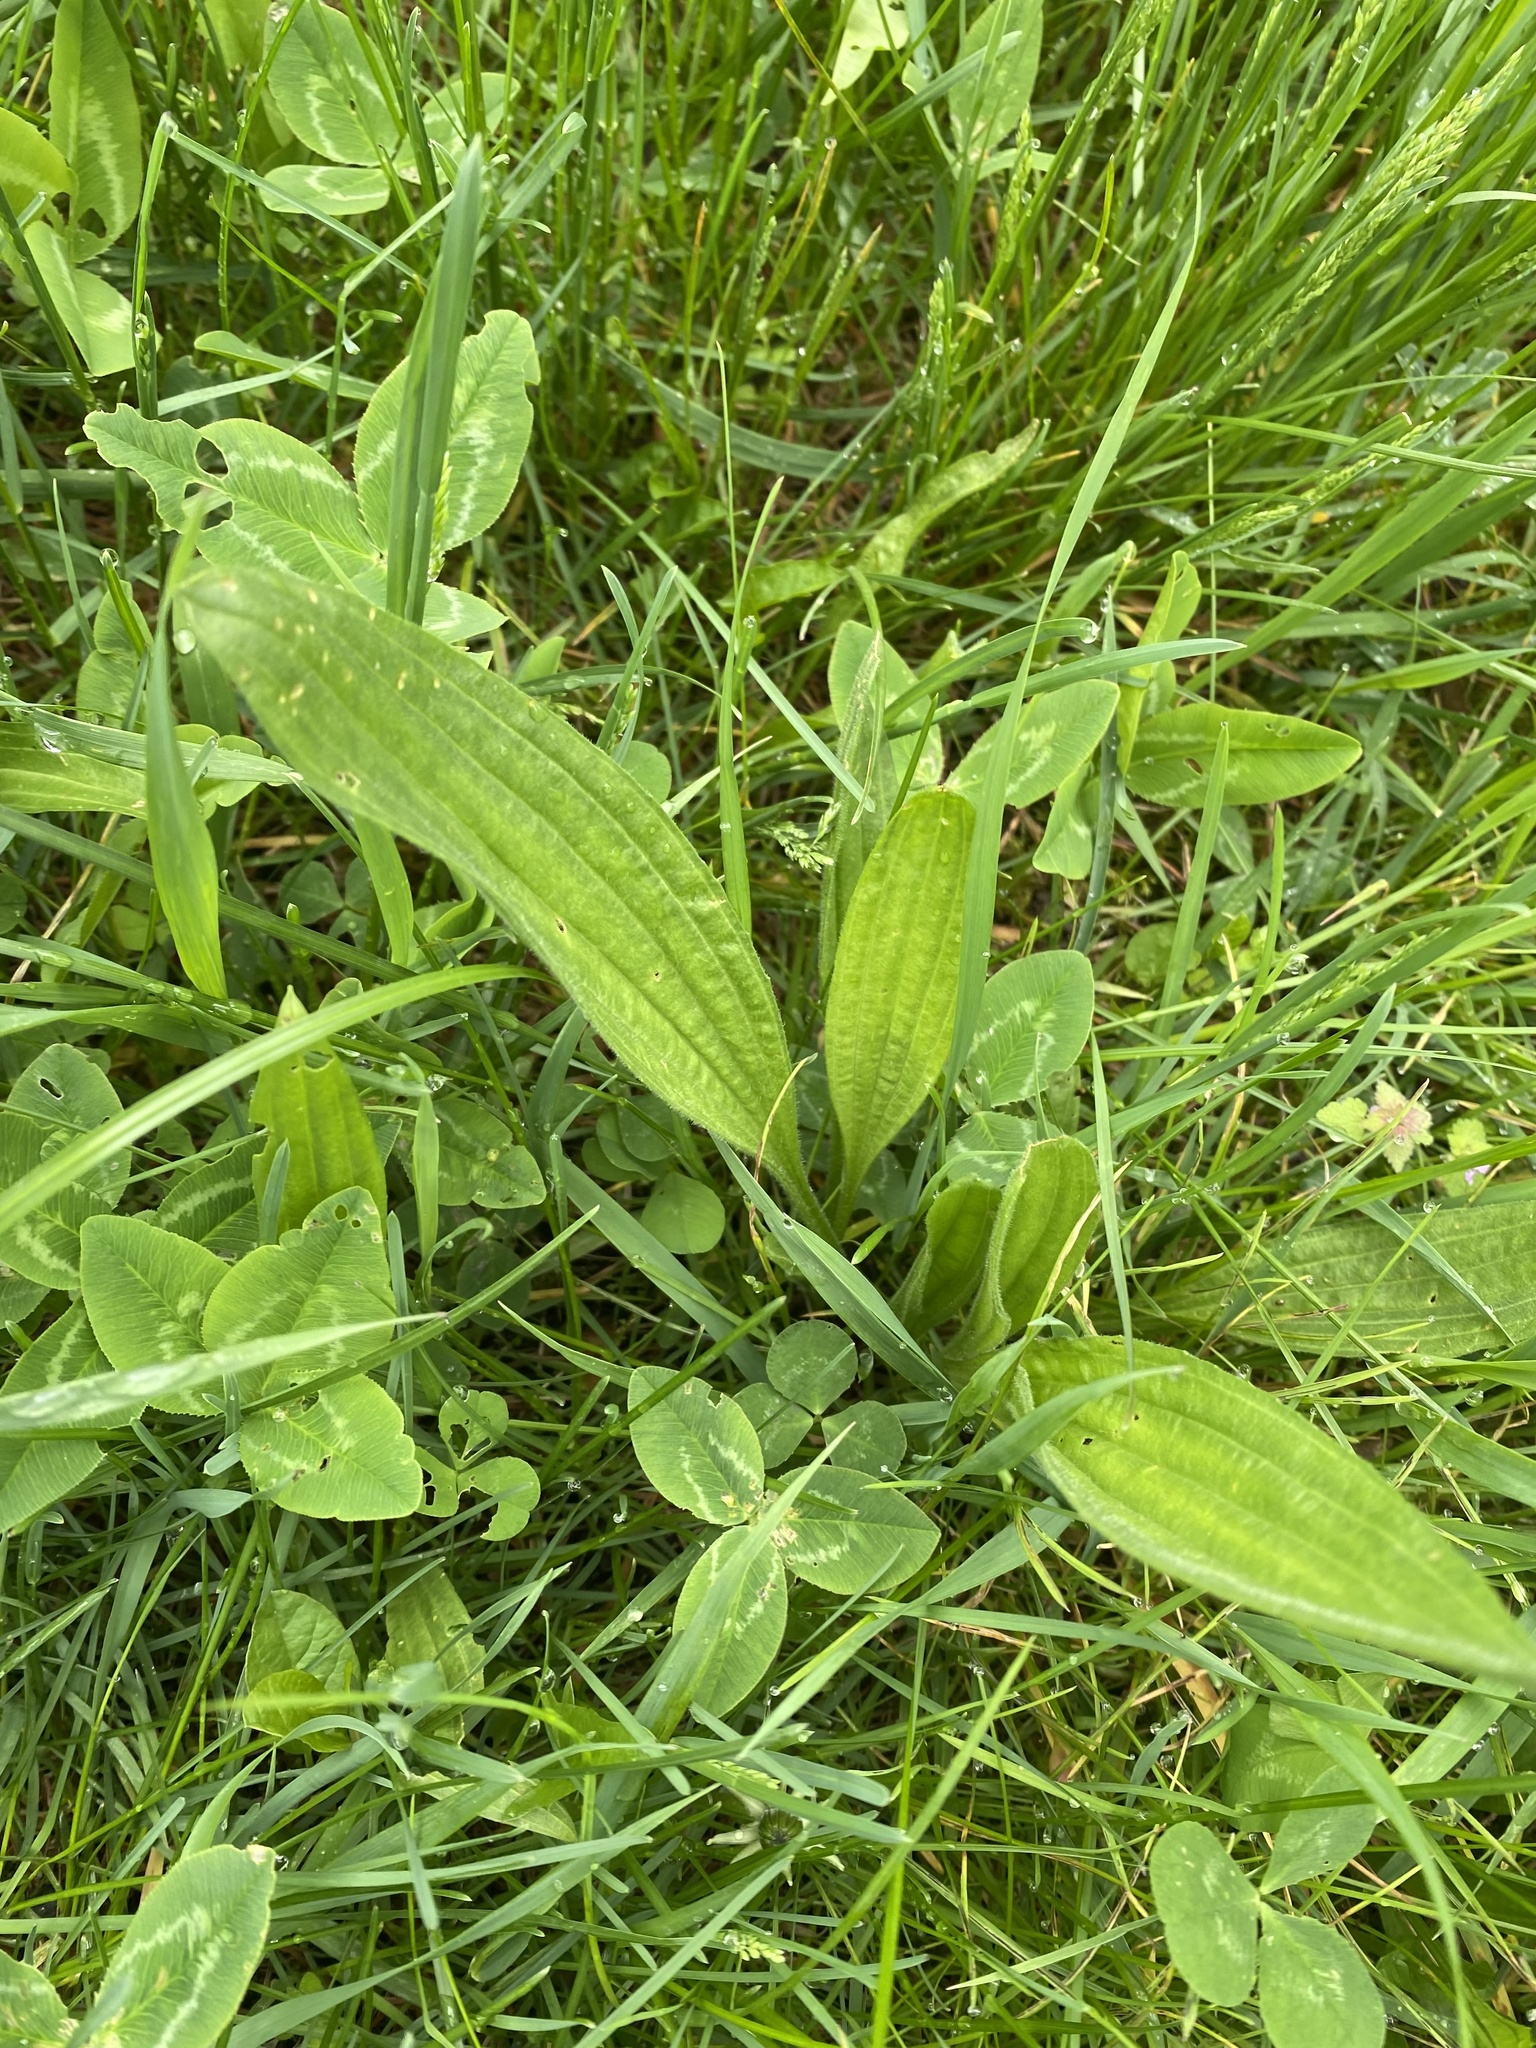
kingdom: Plantae
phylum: Tracheophyta
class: Magnoliopsida
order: Lamiales
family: Plantaginaceae
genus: Plantago
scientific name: Plantago lanceolata
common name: Ribwort plantain
